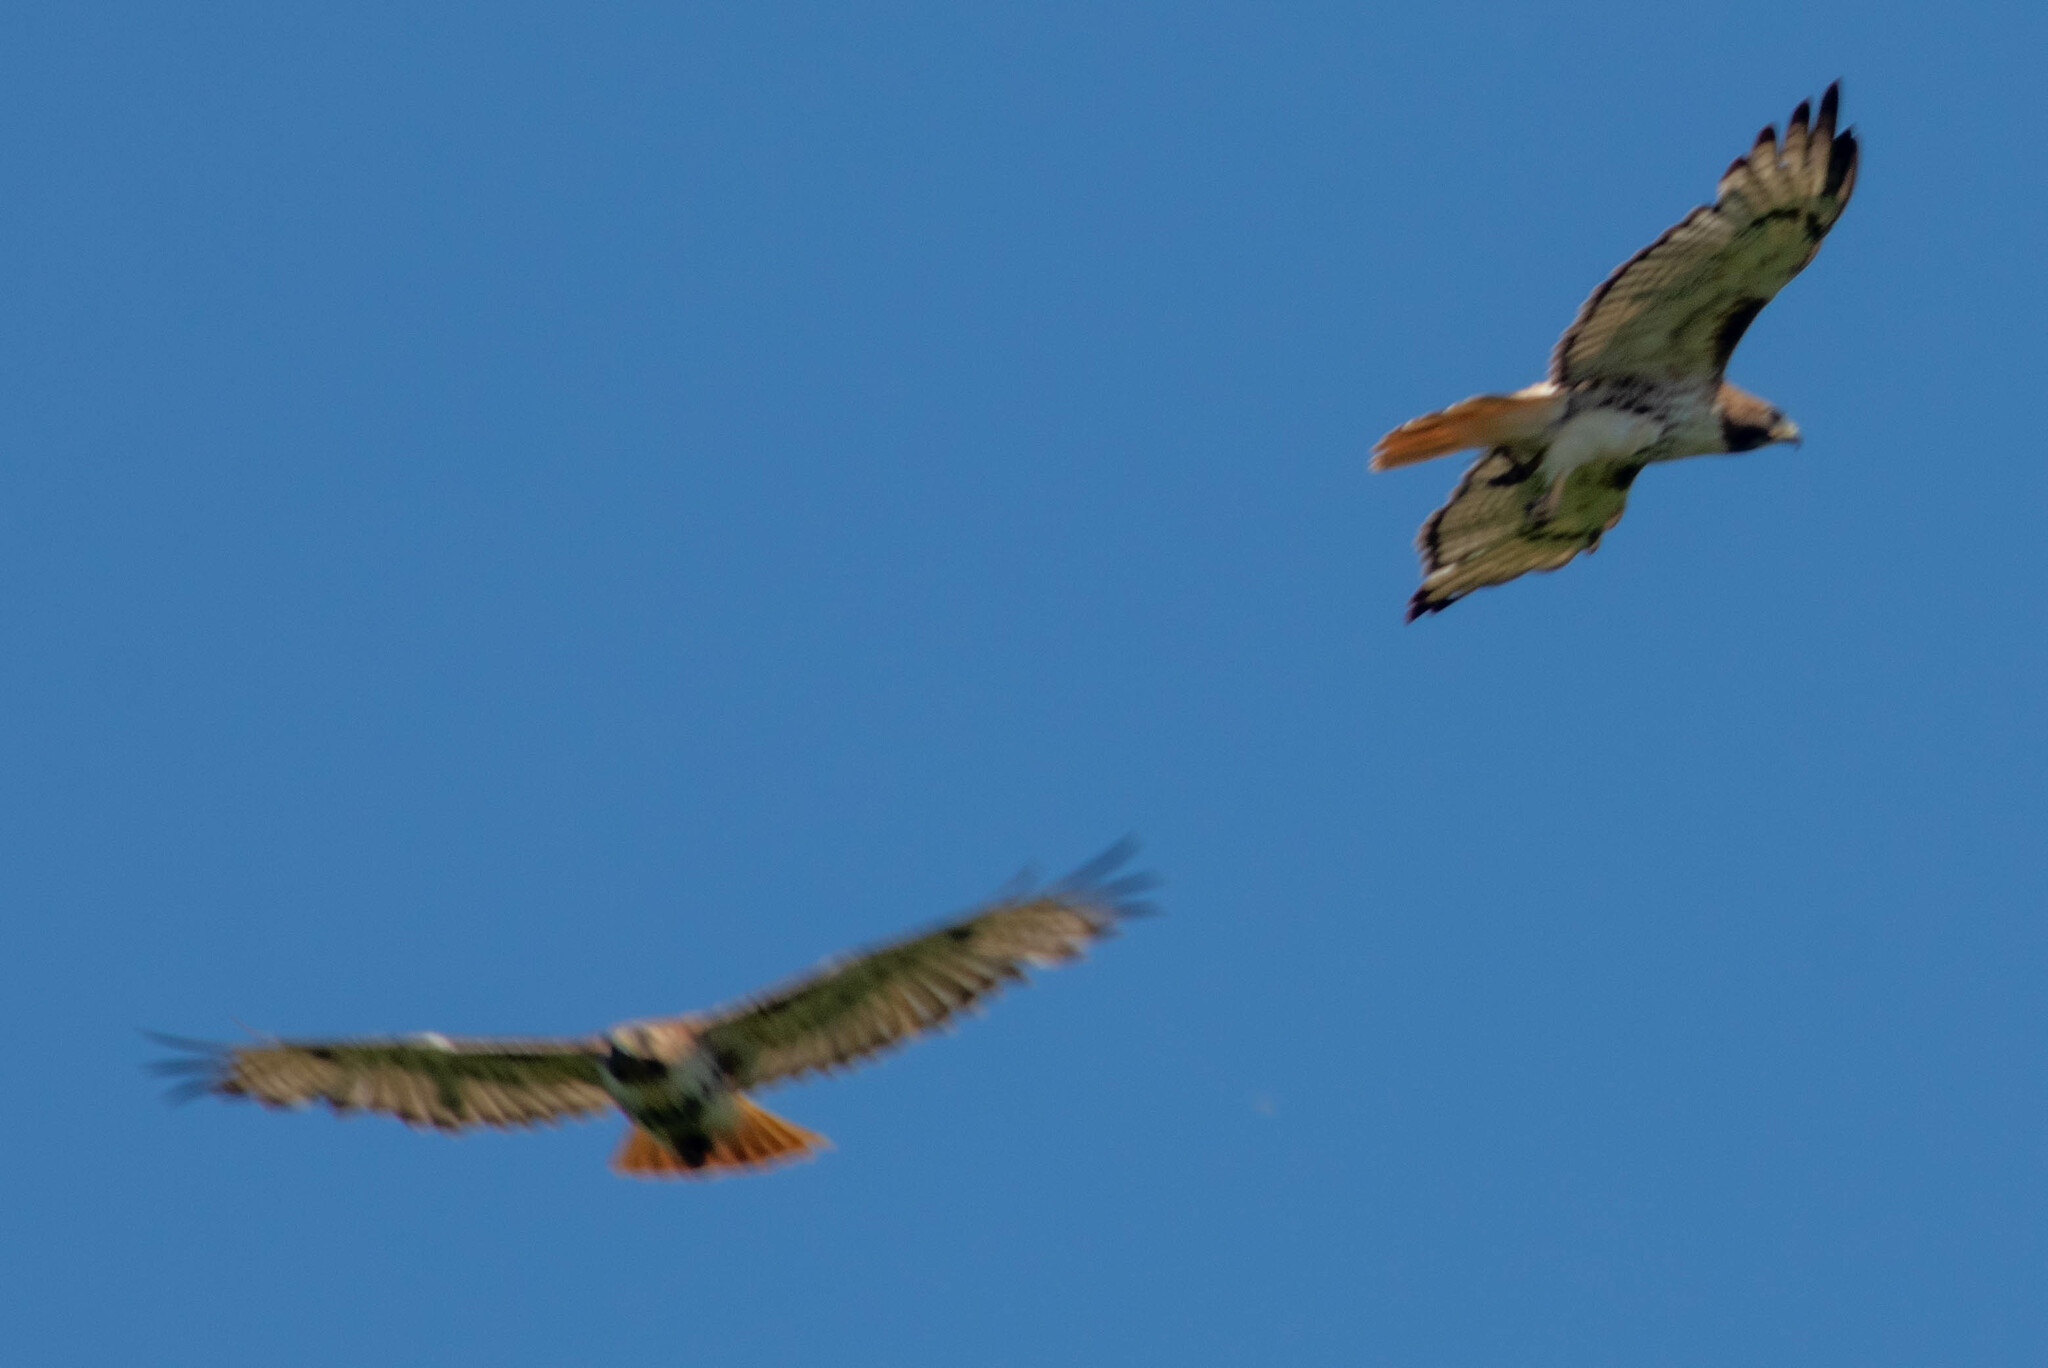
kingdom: Animalia
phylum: Chordata
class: Aves
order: Accipitriformes
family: Accipitridae
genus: Buteo
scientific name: Buteo jamaicensis
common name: Red-tailed hawk
